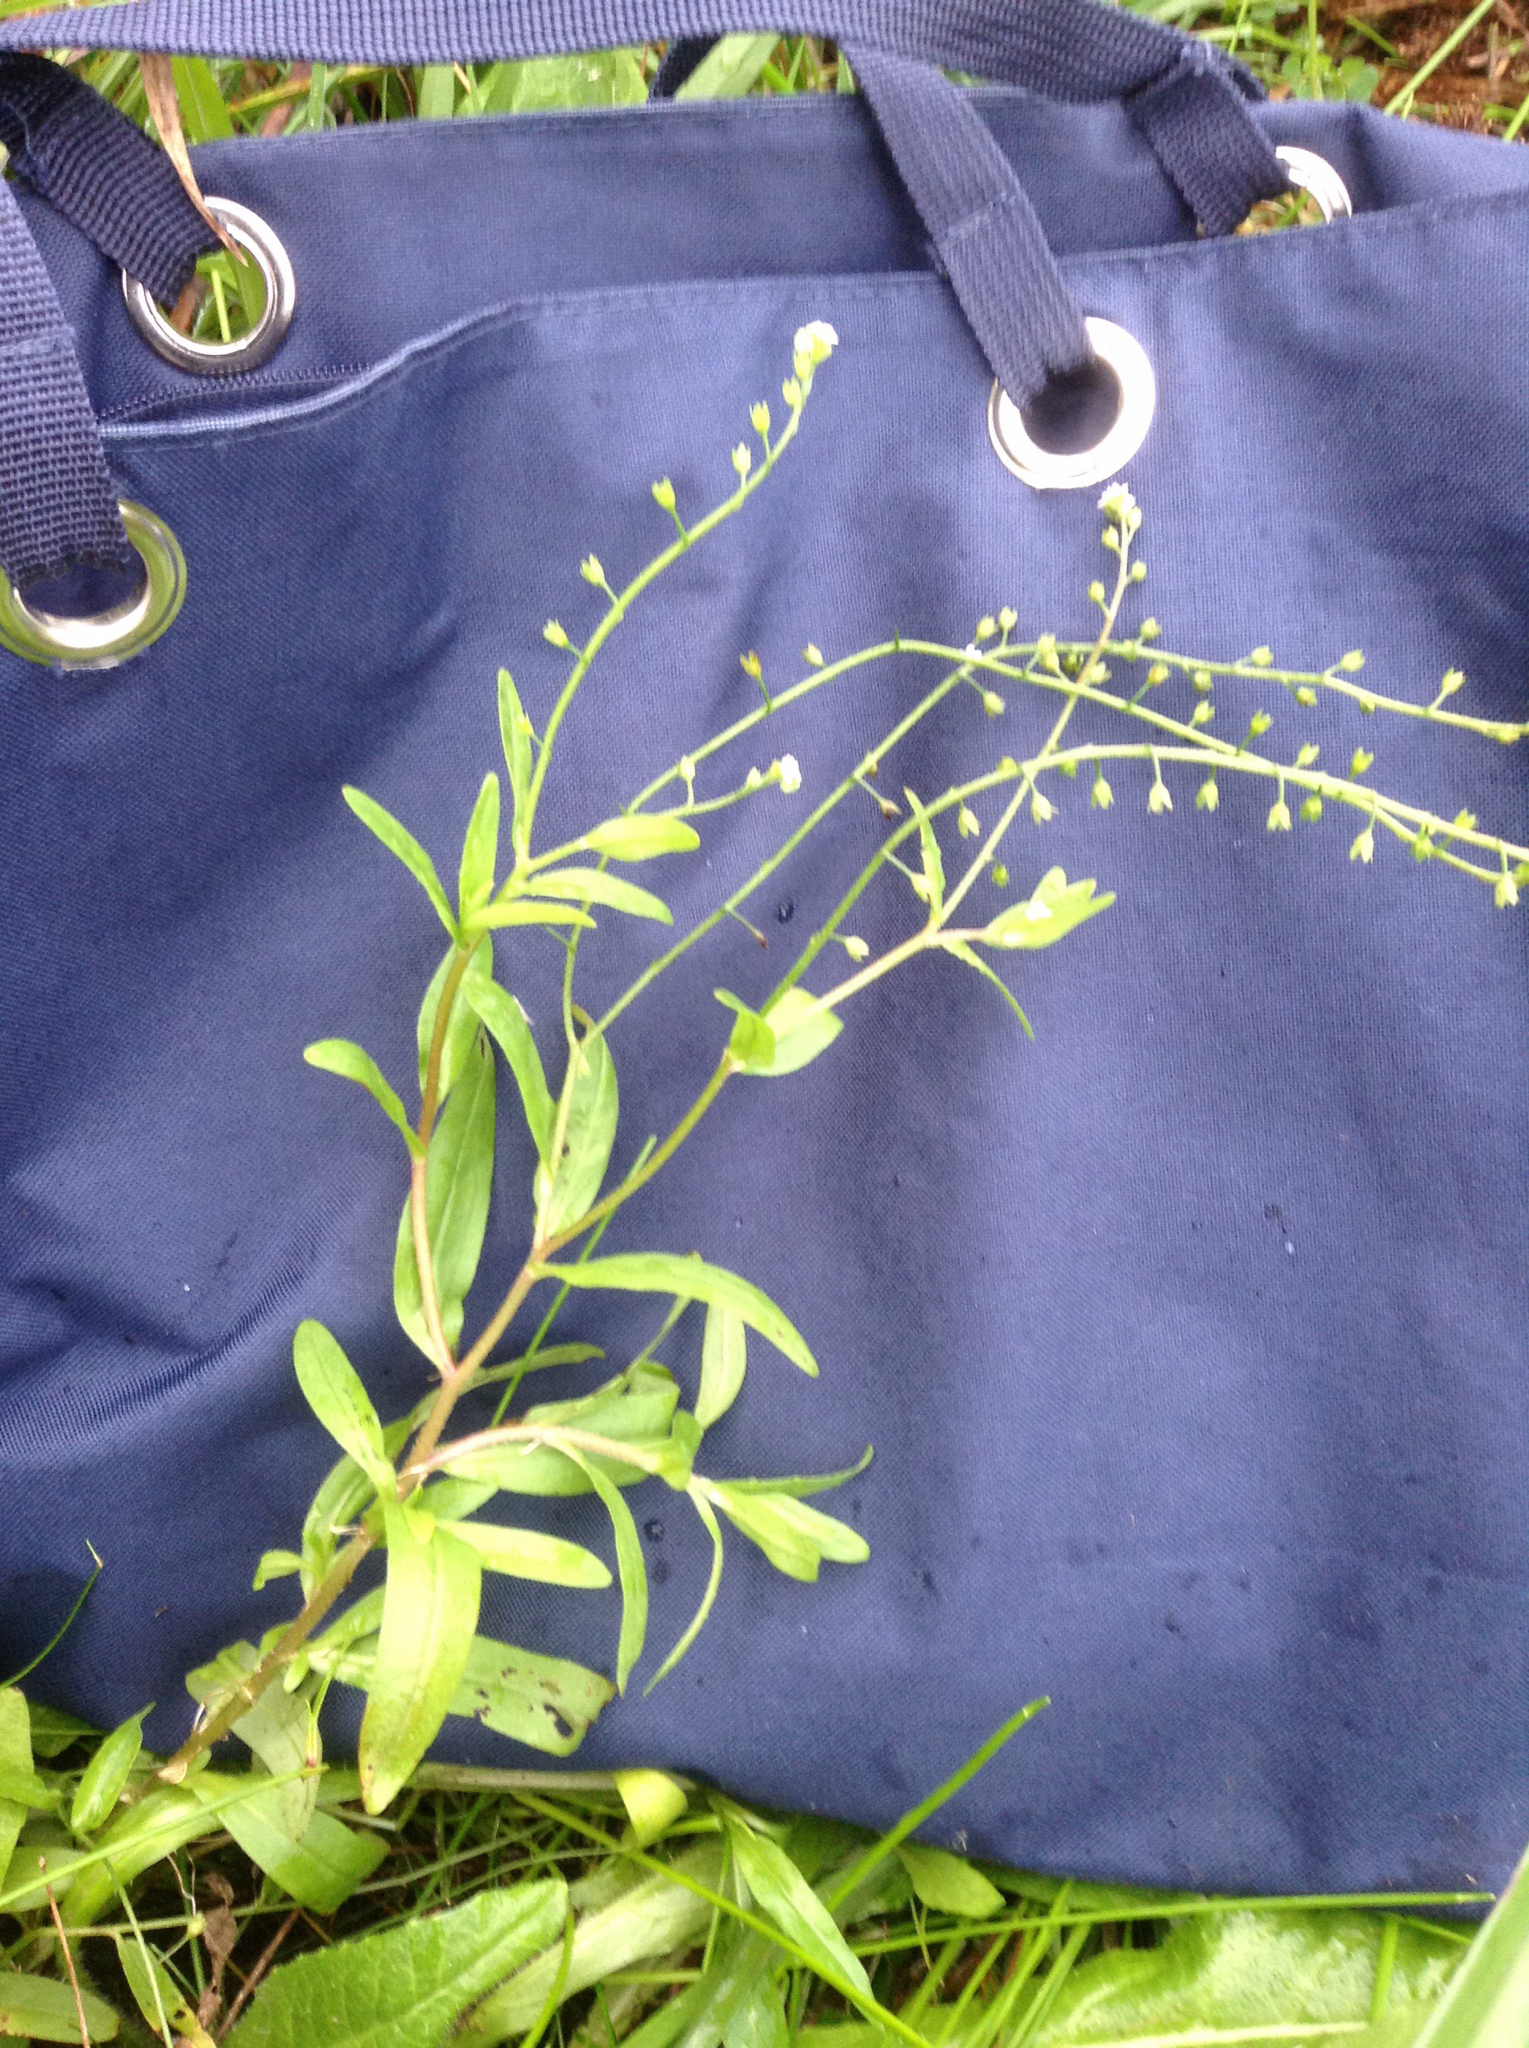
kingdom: Plantae
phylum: Tracheophyta
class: Magnoliopsida
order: Boraginales
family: Boraginaceae
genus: Myosotis
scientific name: Myosotis arvensis
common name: Field forget-me-not
